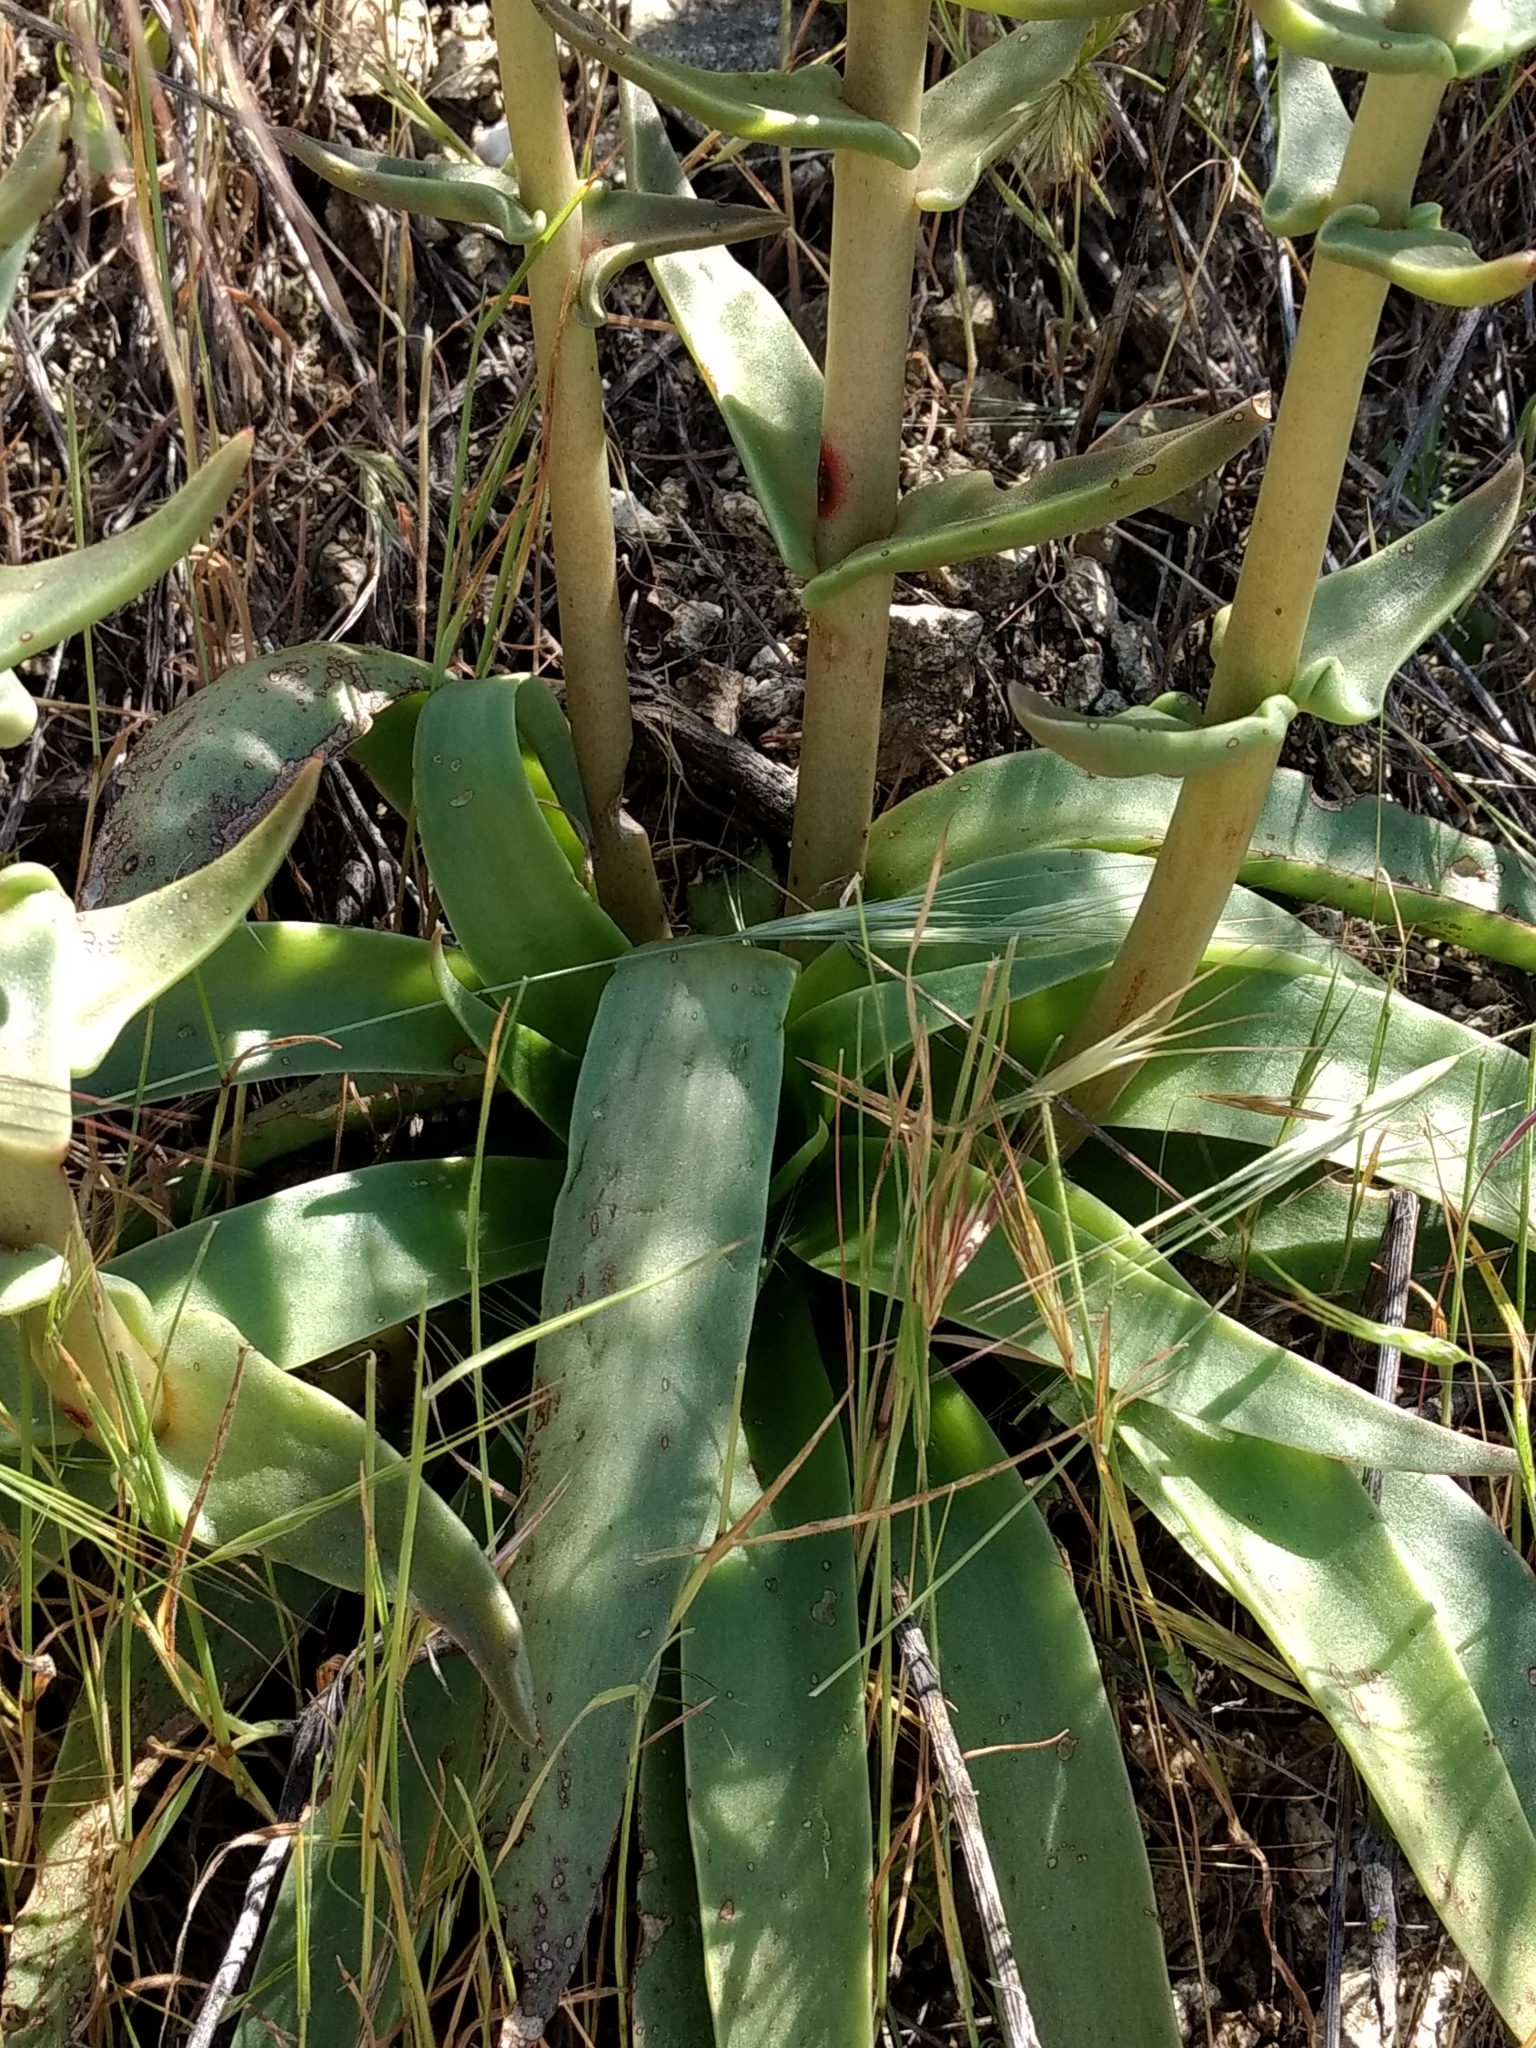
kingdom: Plantae
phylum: Tracheophyta
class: Magnoliopsida
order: Saxifragales
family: Crassulaceae
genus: Dudleya
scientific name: Dudleya lanceolata
